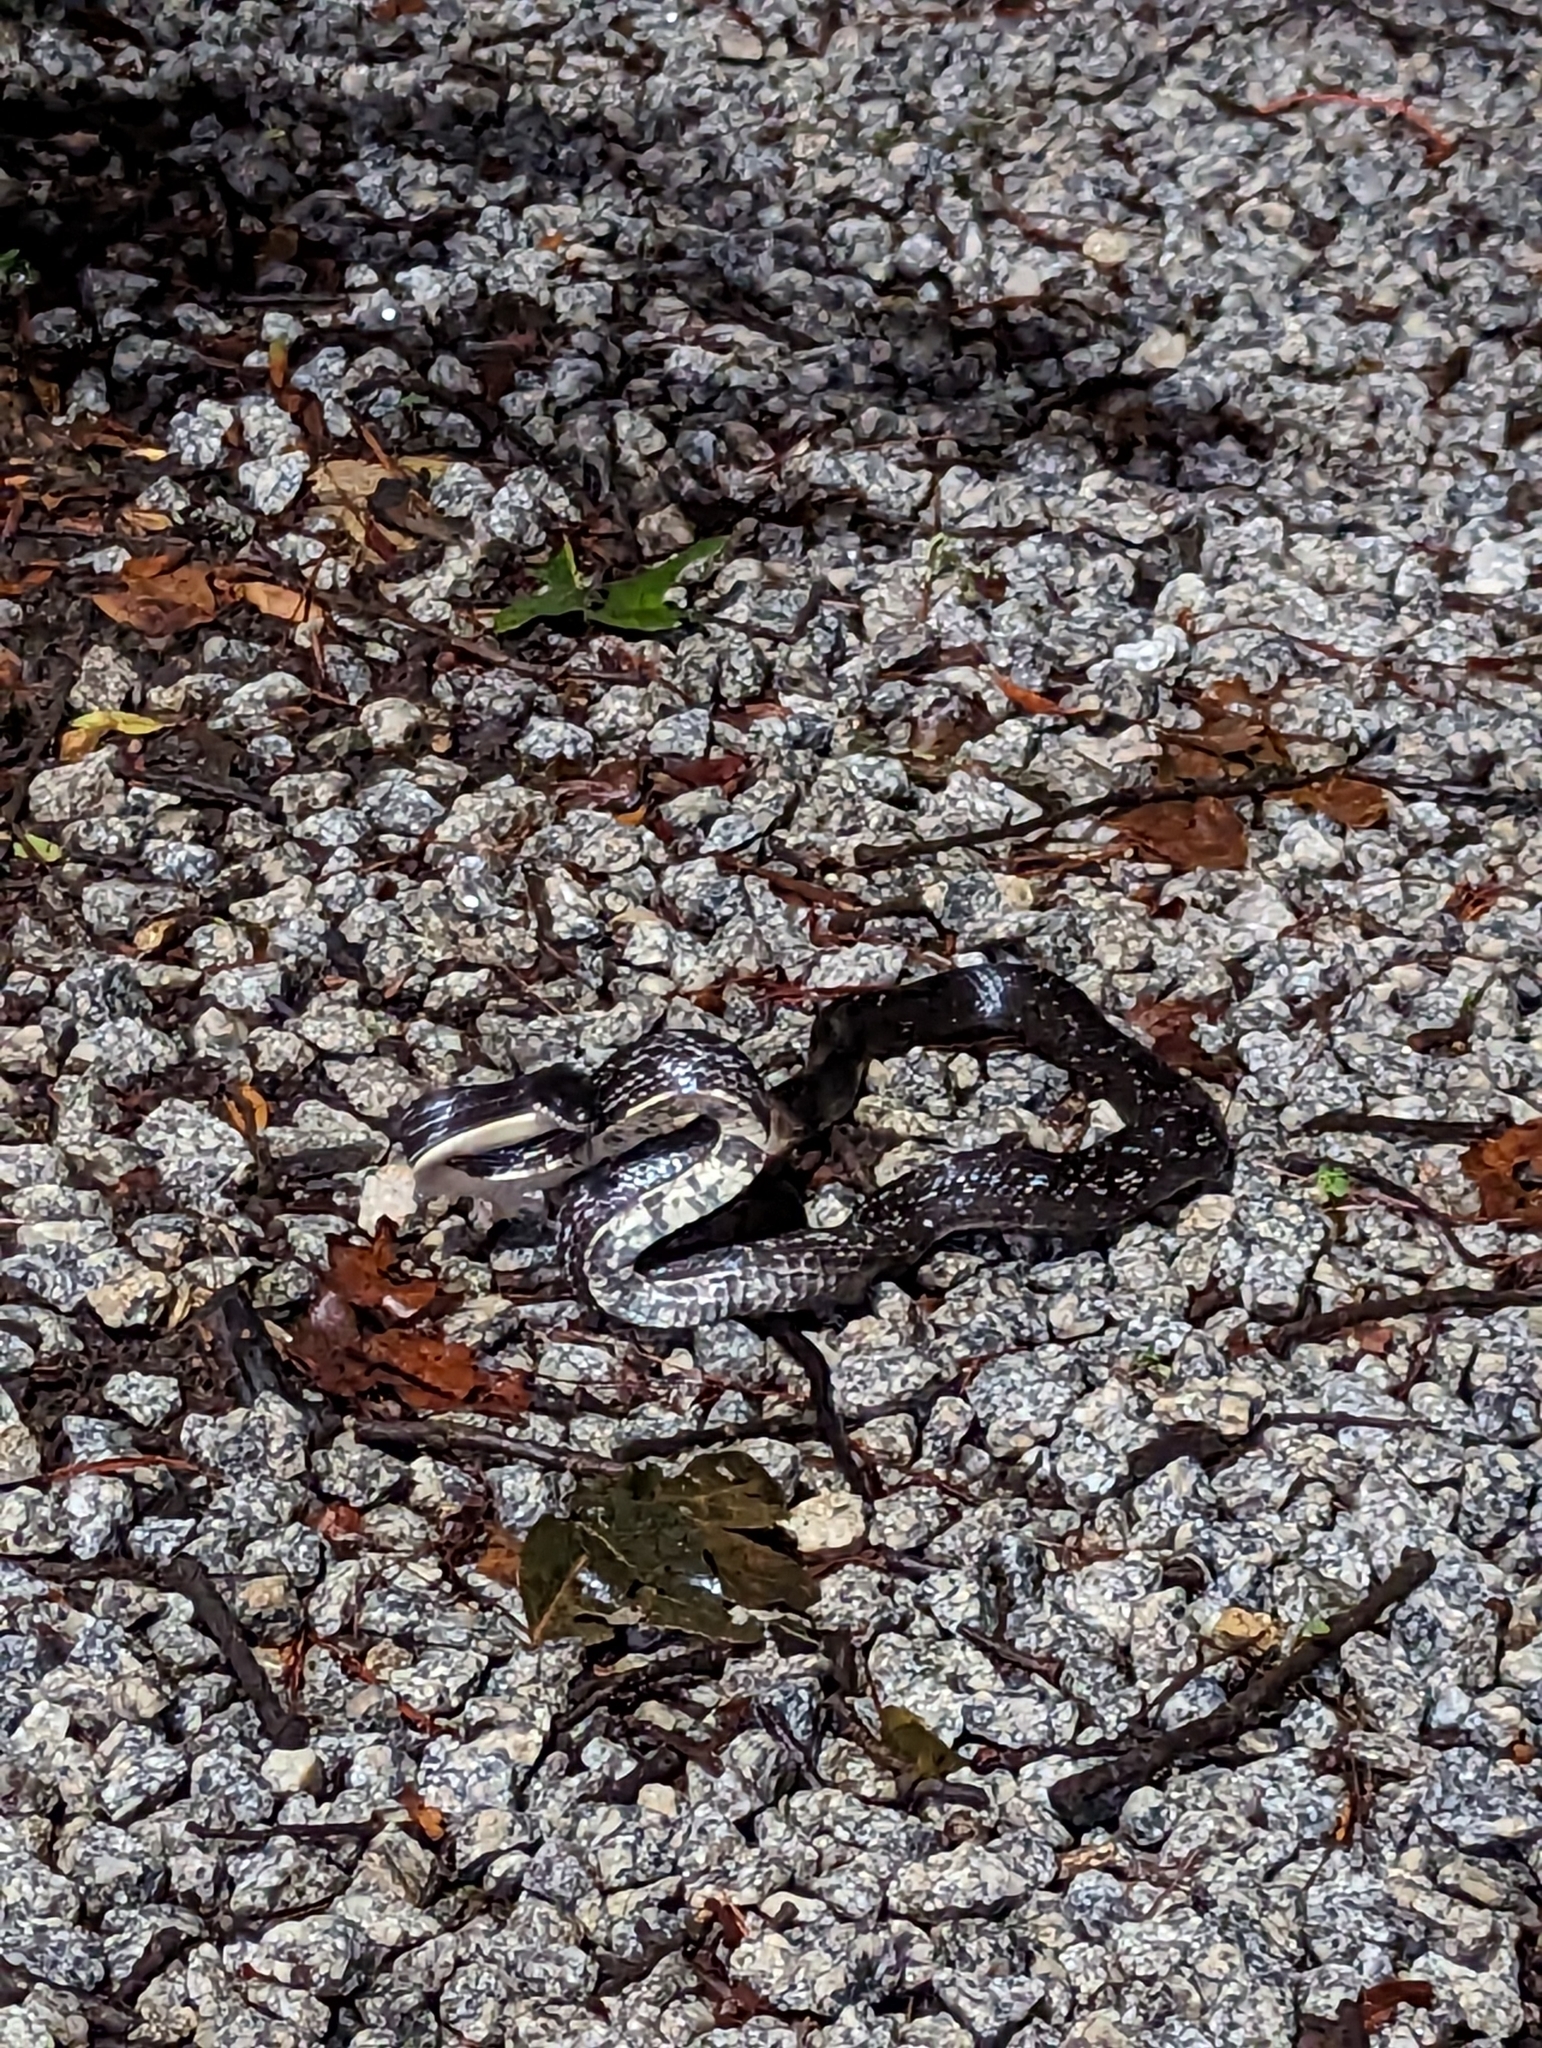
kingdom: Animalia
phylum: Chordata
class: Squamata
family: Colubridae
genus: Pantherophis
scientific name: Pantherophis alleghaniensis
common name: Eastern rat snake
